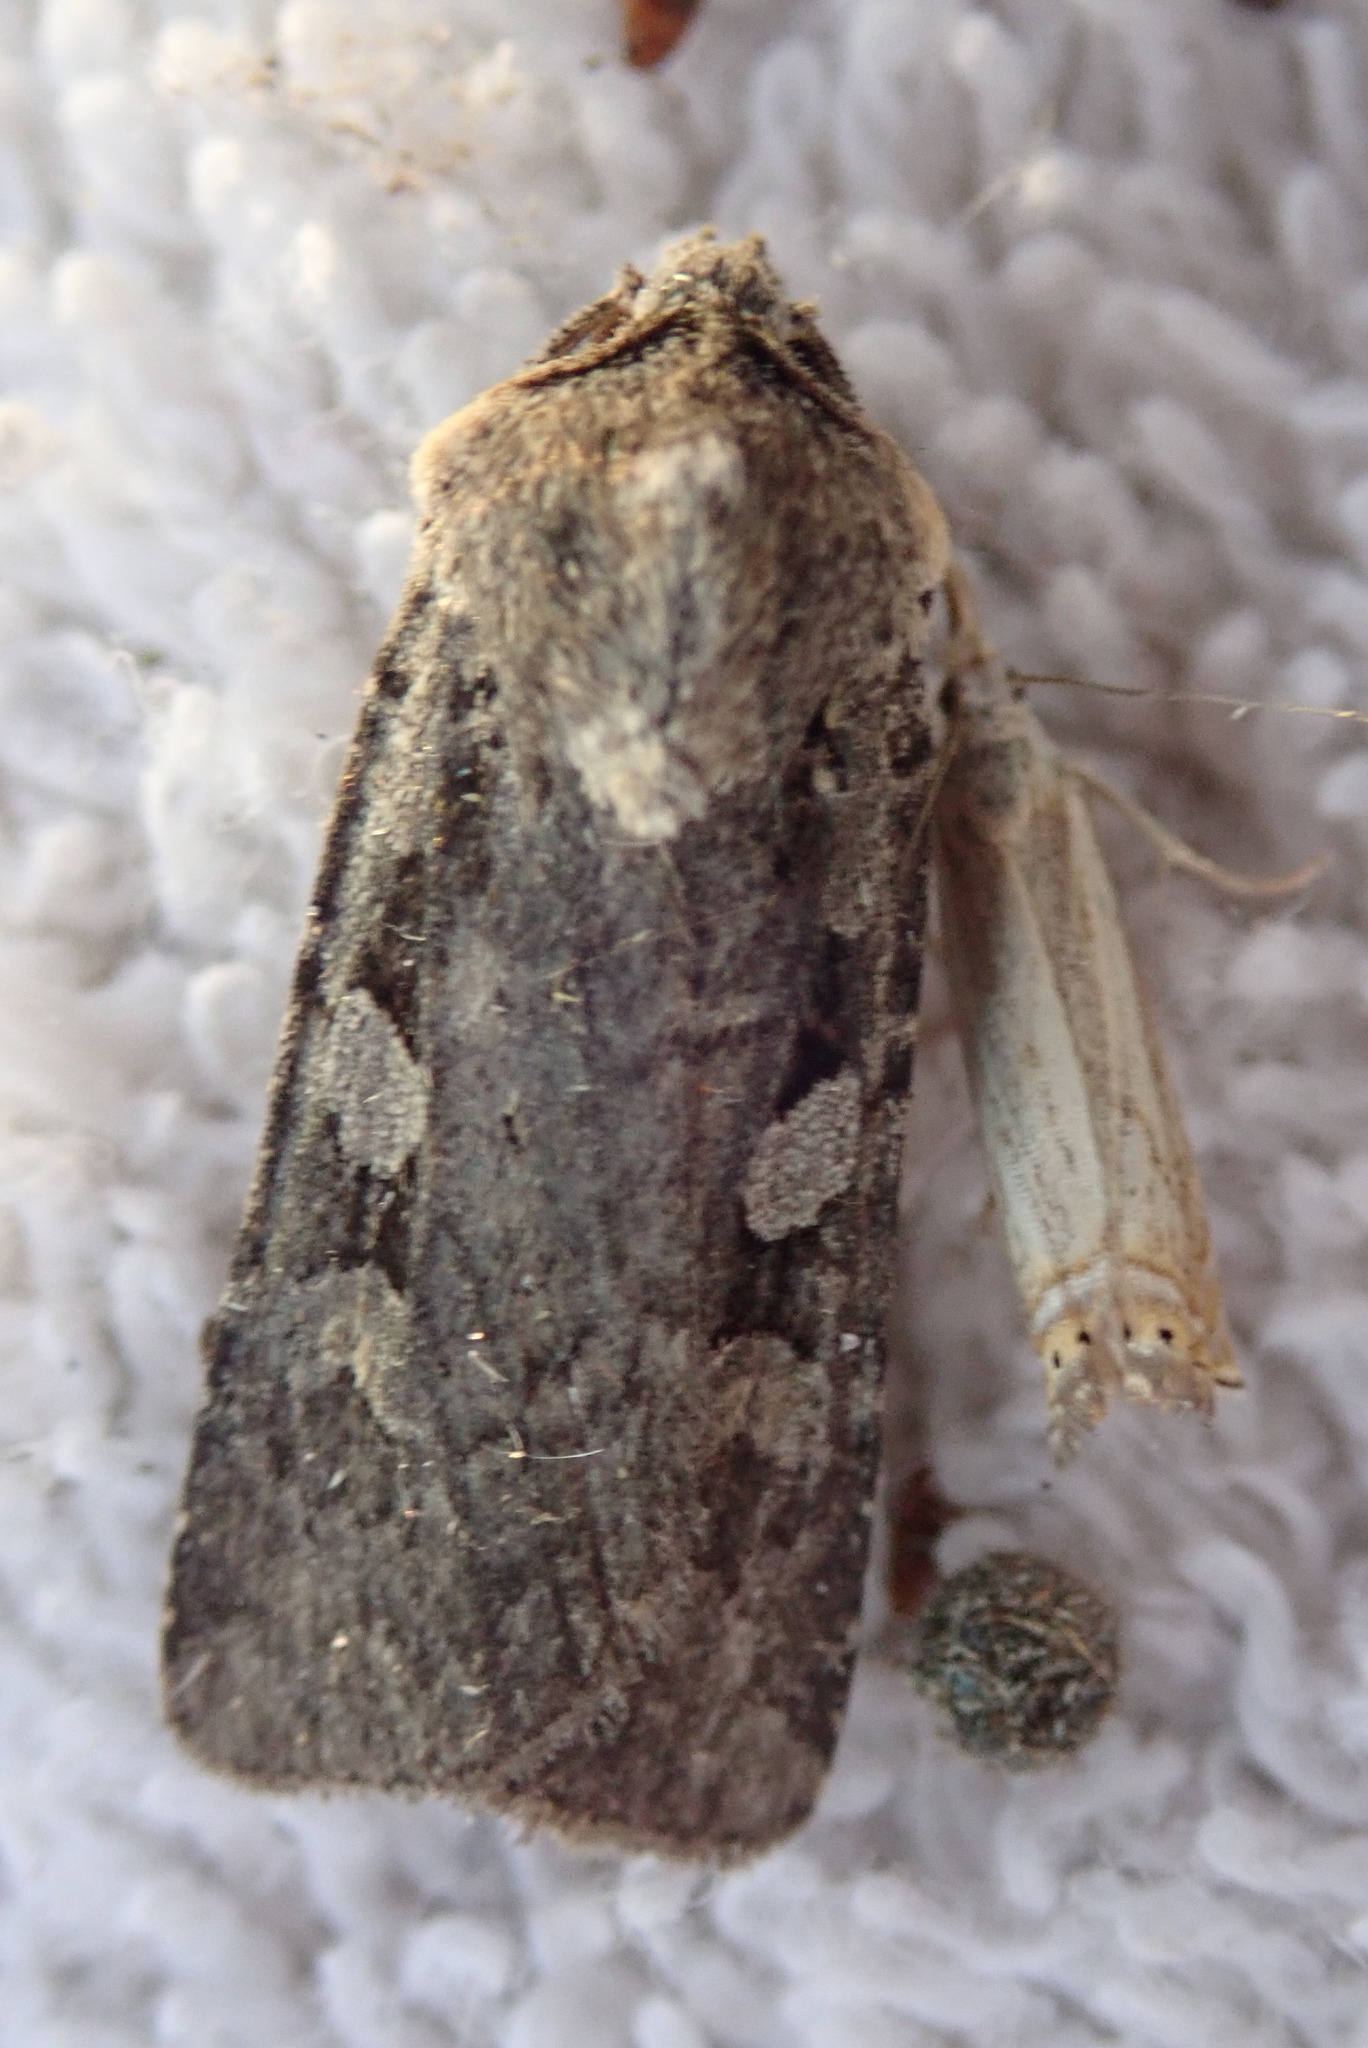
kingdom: Animalia
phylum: Arthropoda
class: Insecta
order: Lepidoptera
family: Noctuidae
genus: Euxoa
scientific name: Euxoa tessellata
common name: Striped cutworm
